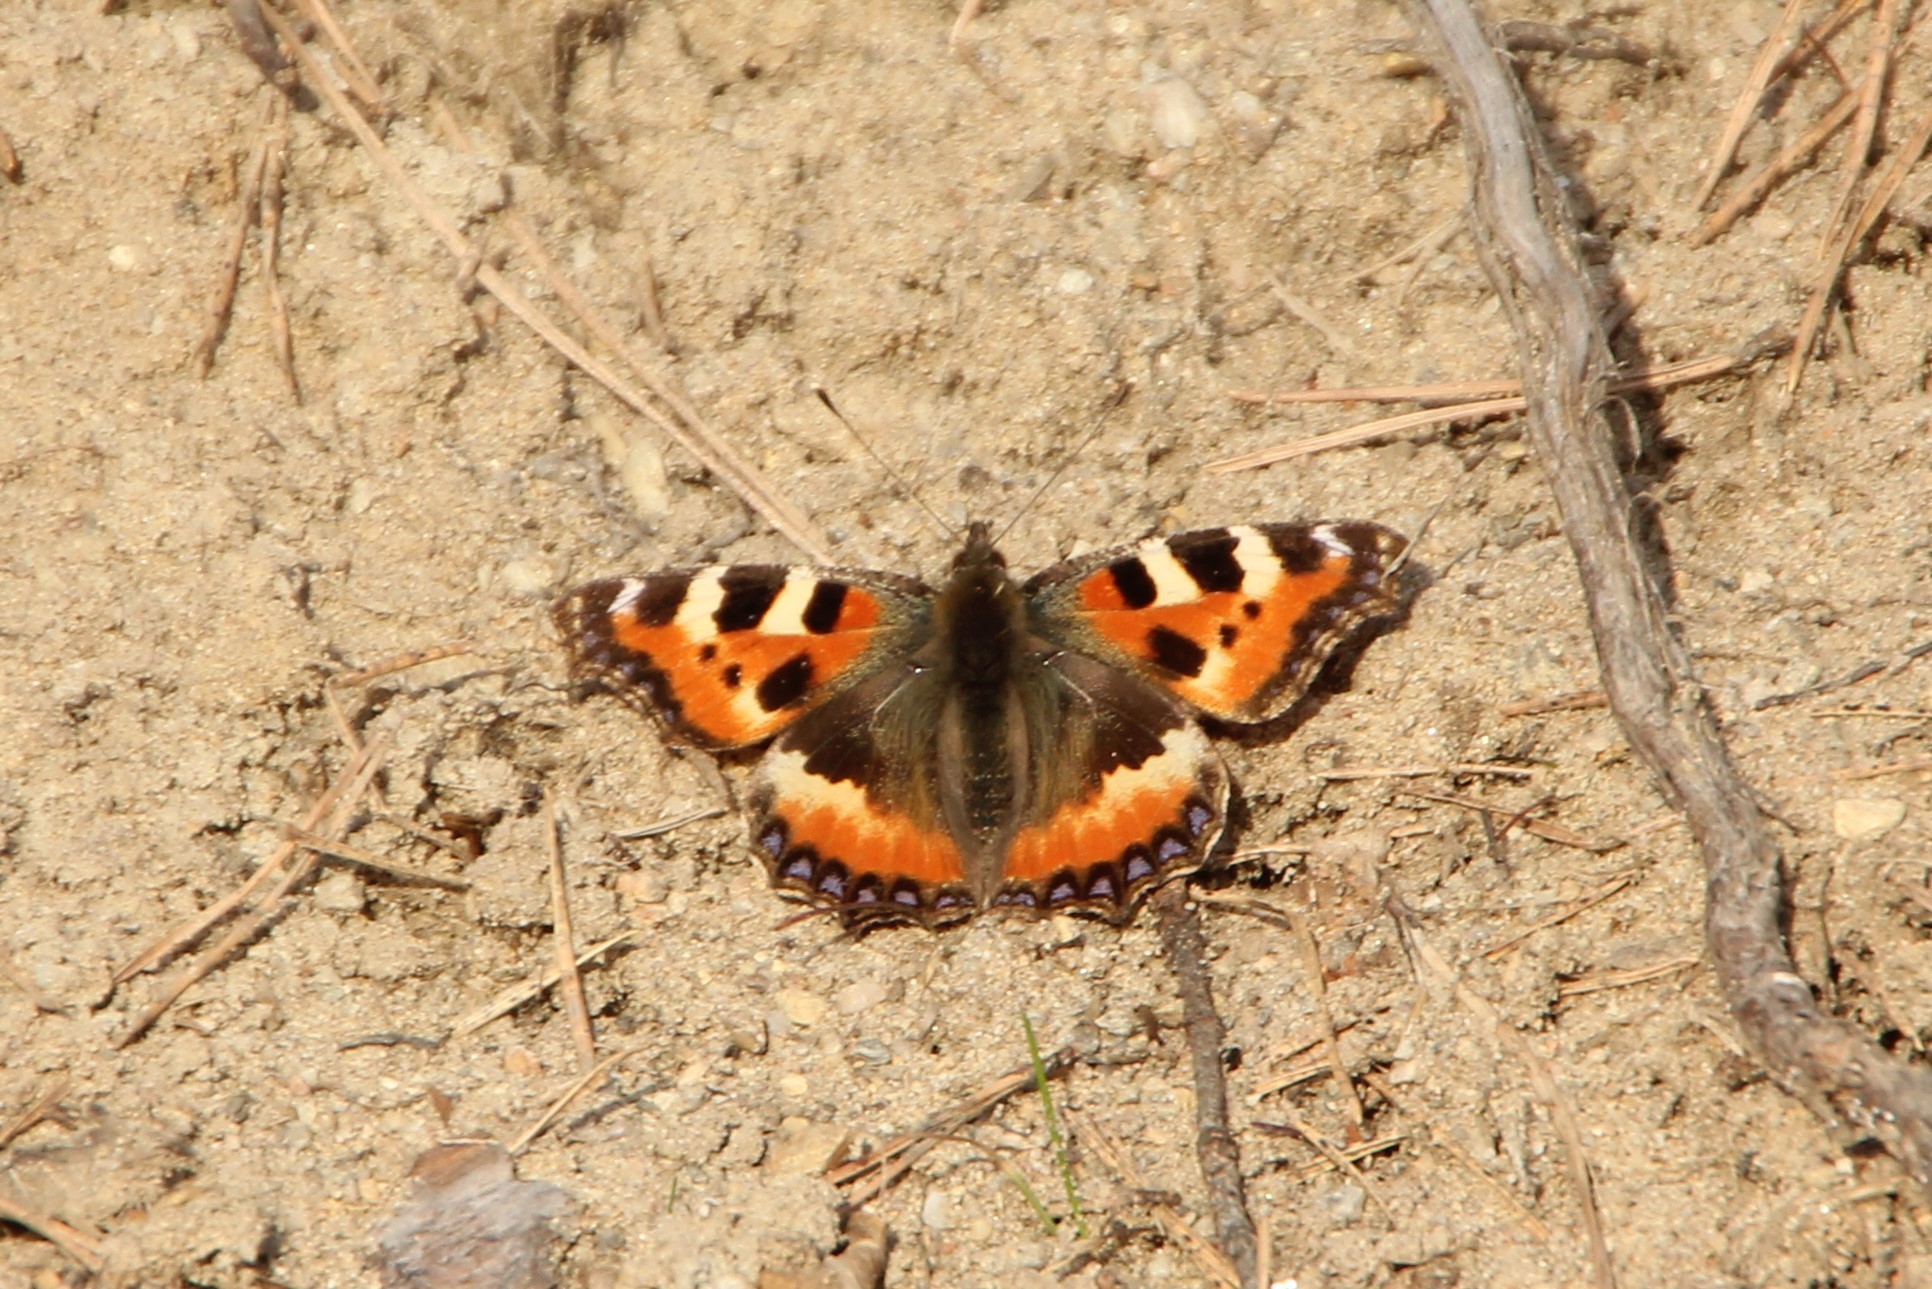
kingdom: Animalia
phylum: Arthropoda
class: Insecta
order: Lepidoptera
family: Nymphalidae
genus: Aglais
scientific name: Aglais urticae
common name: Small tortoiseshell
